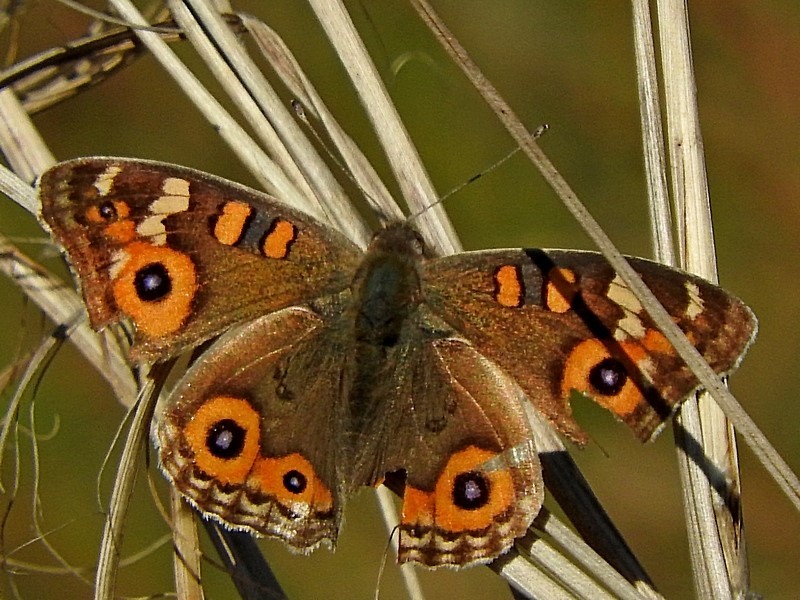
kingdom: Animalia
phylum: Arthropoda
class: Insecta
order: Lepidoptera
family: Nymphalidae
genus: Junonia
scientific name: Junonia villida
